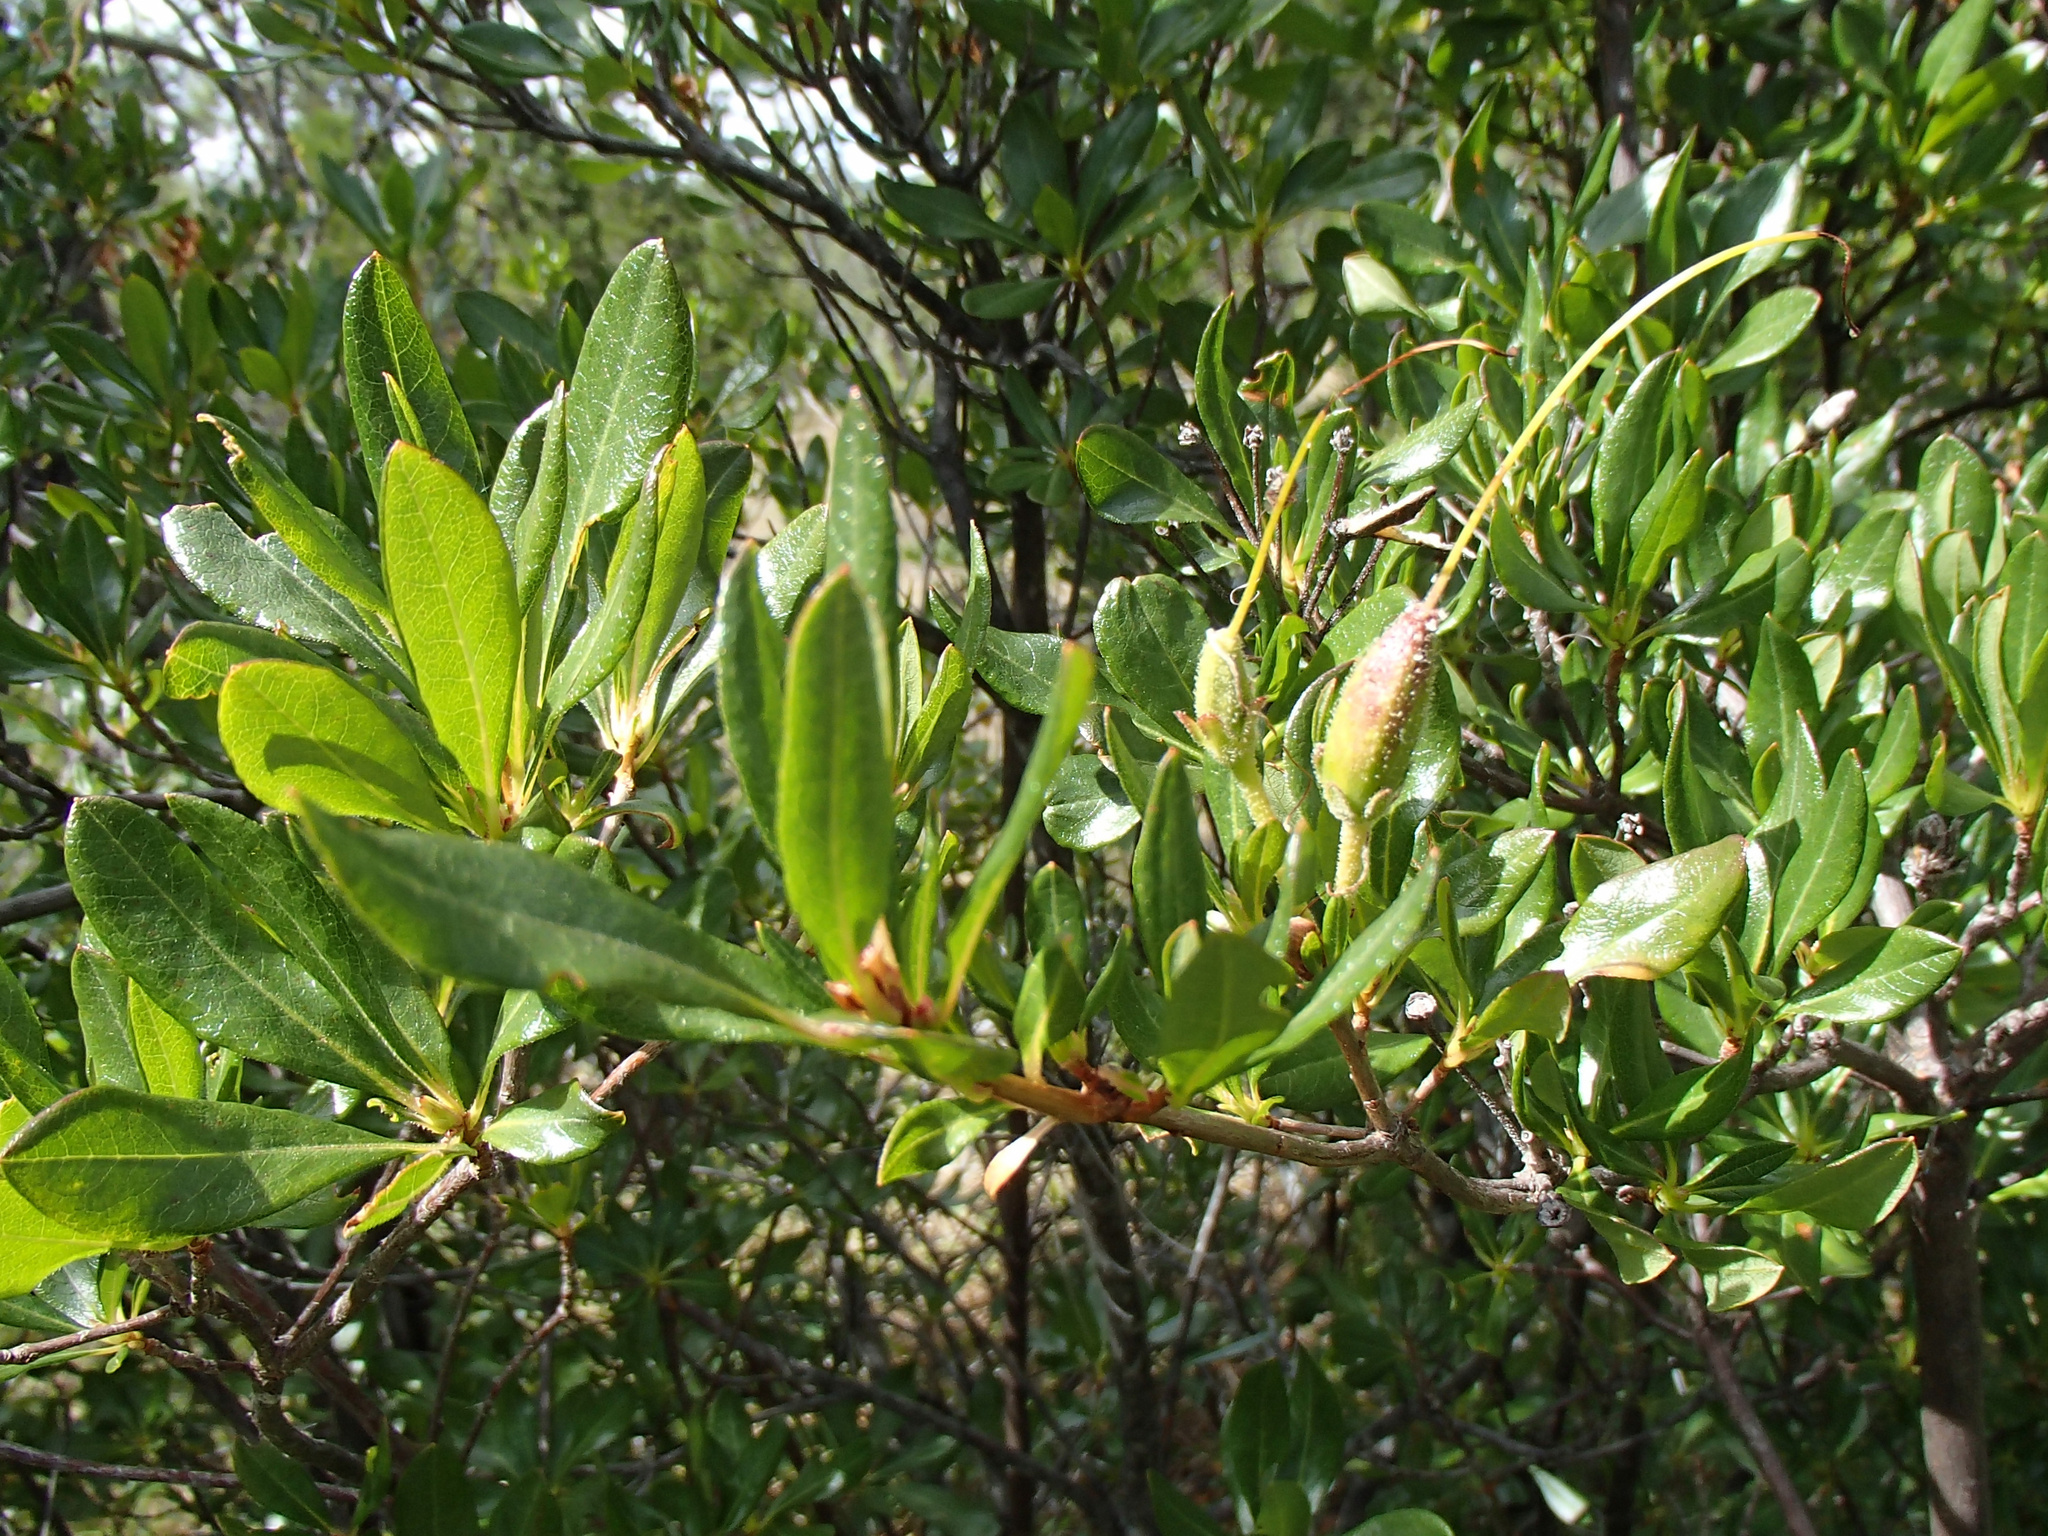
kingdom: Plantae
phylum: Tracheophyta
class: Magnoliopsida
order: Ericales
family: Ericaceae
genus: Rhododendron
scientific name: Rhododendron occidentale
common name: Western azalea
